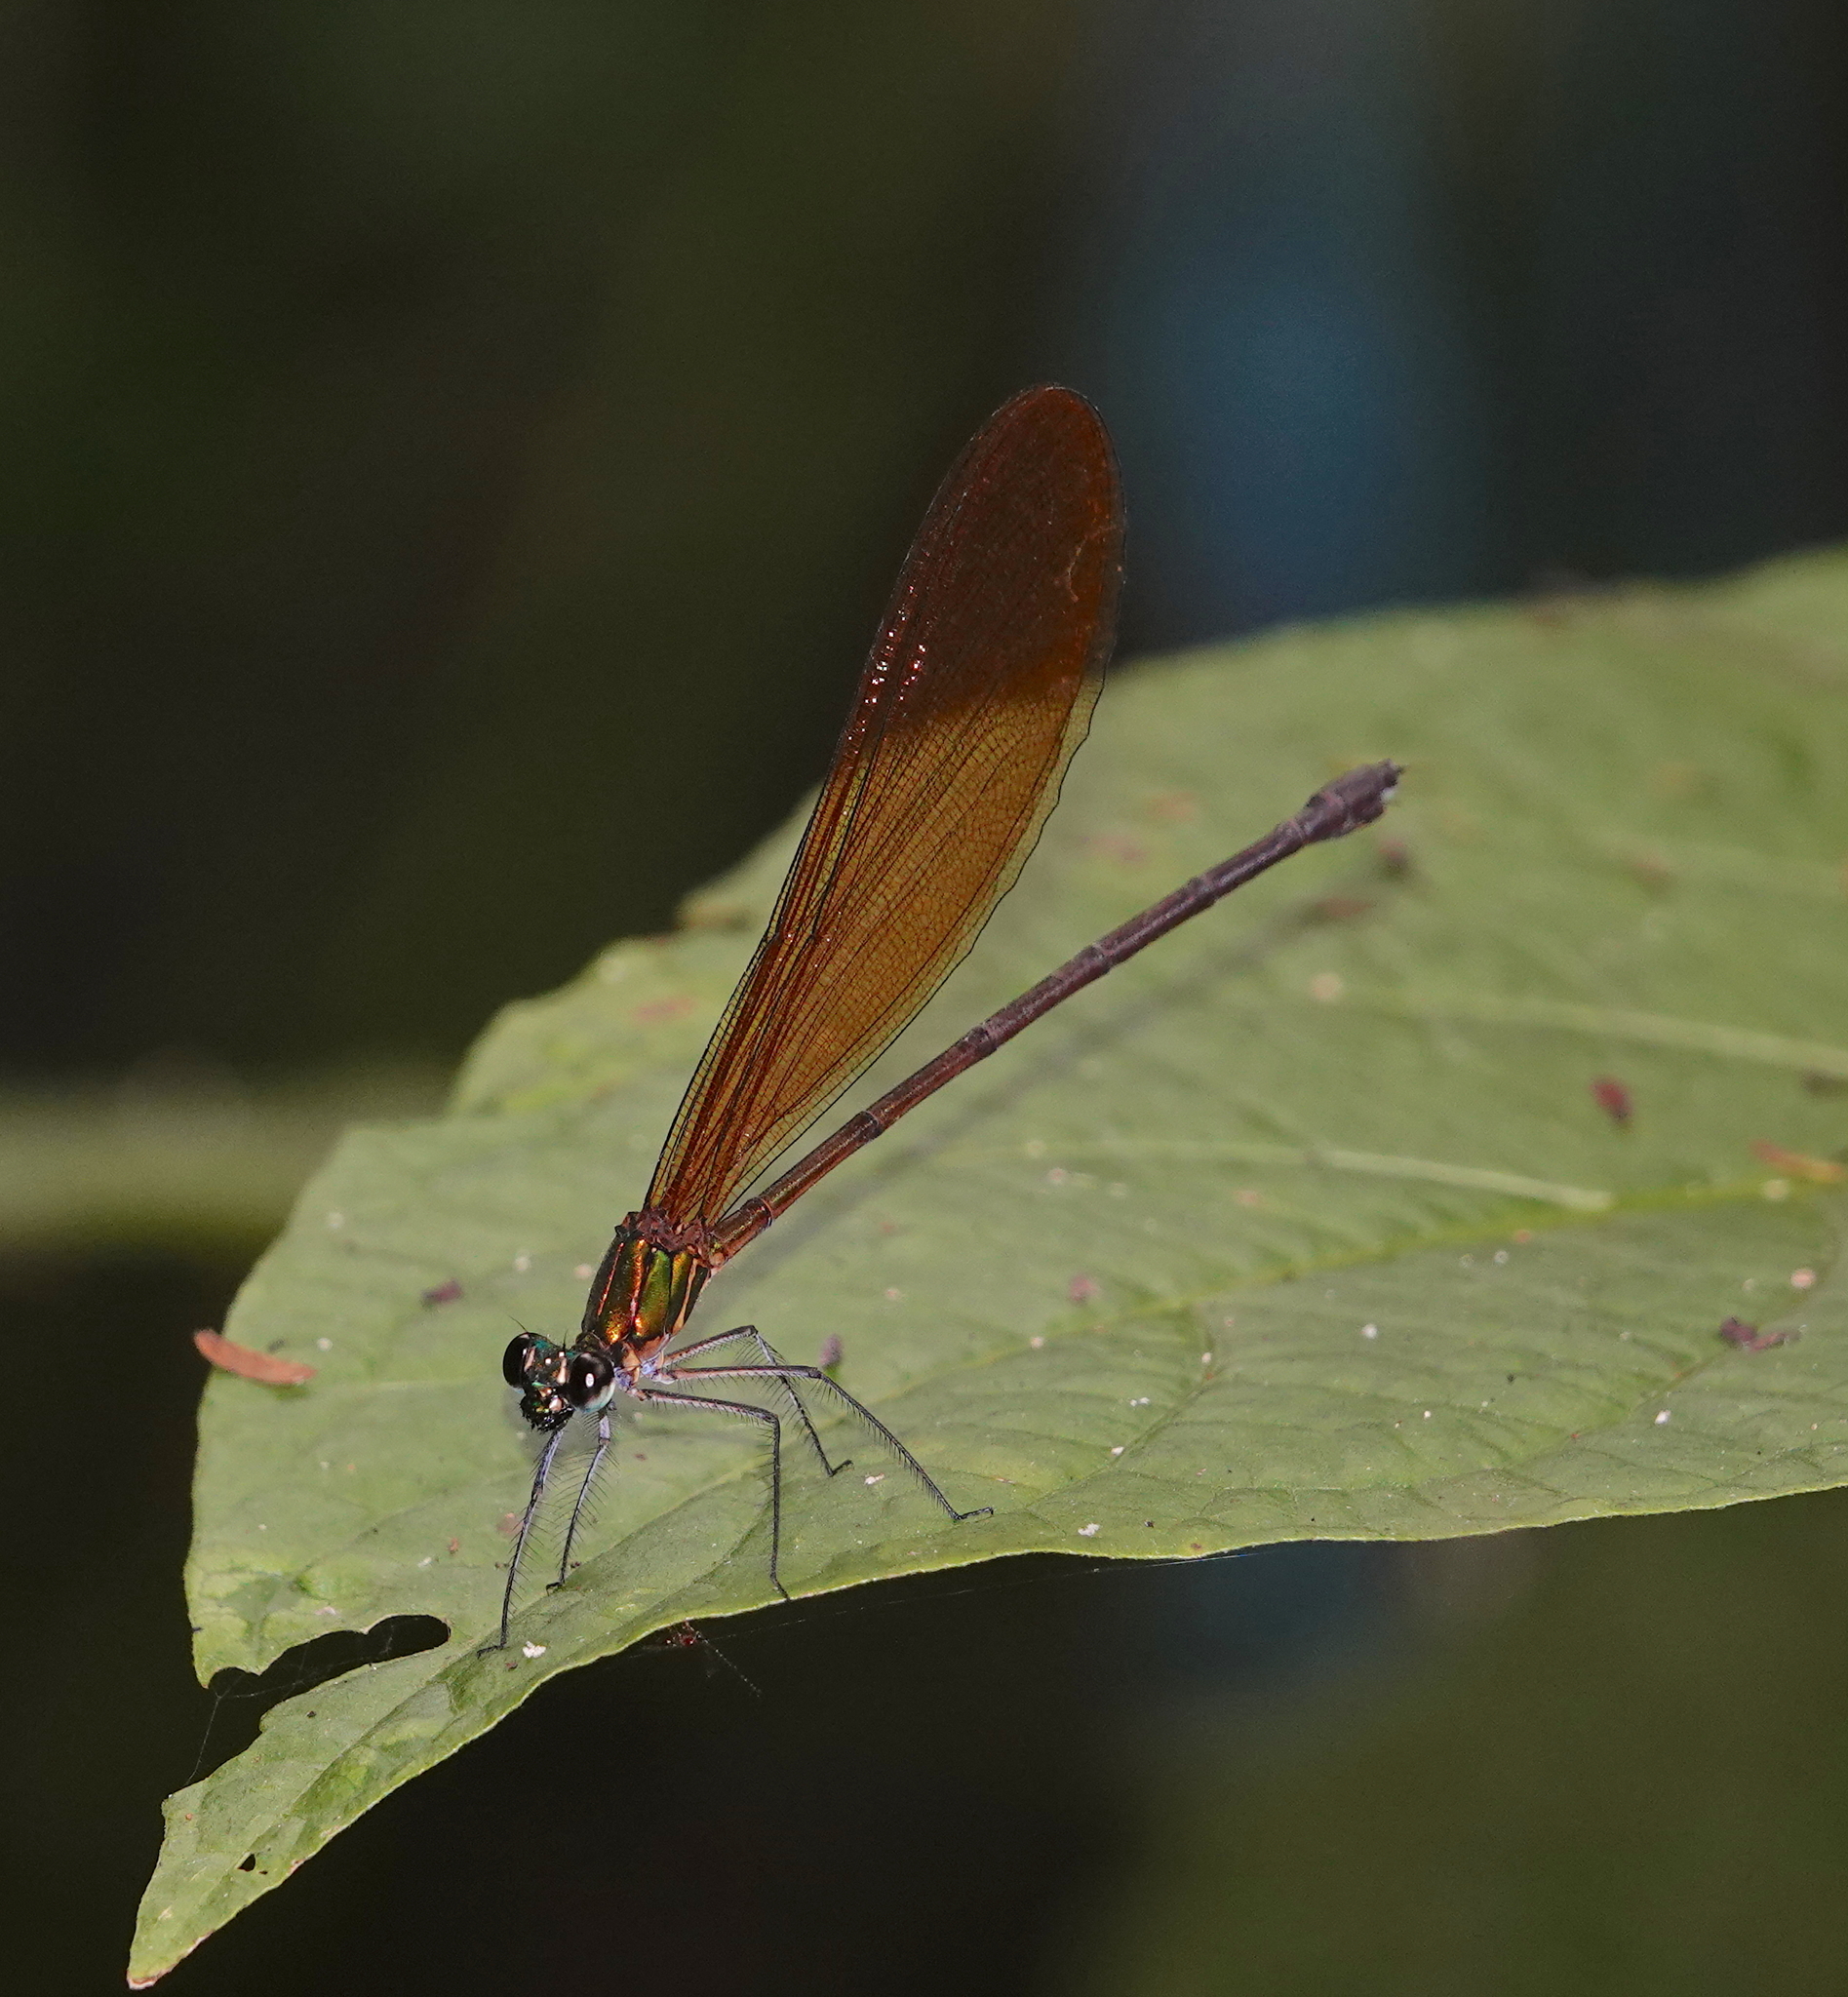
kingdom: Animalia
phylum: Arthropoda
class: Insecta
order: Odonata
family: Calopterygidae
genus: Vestalis
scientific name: Vestalis luctuosa
